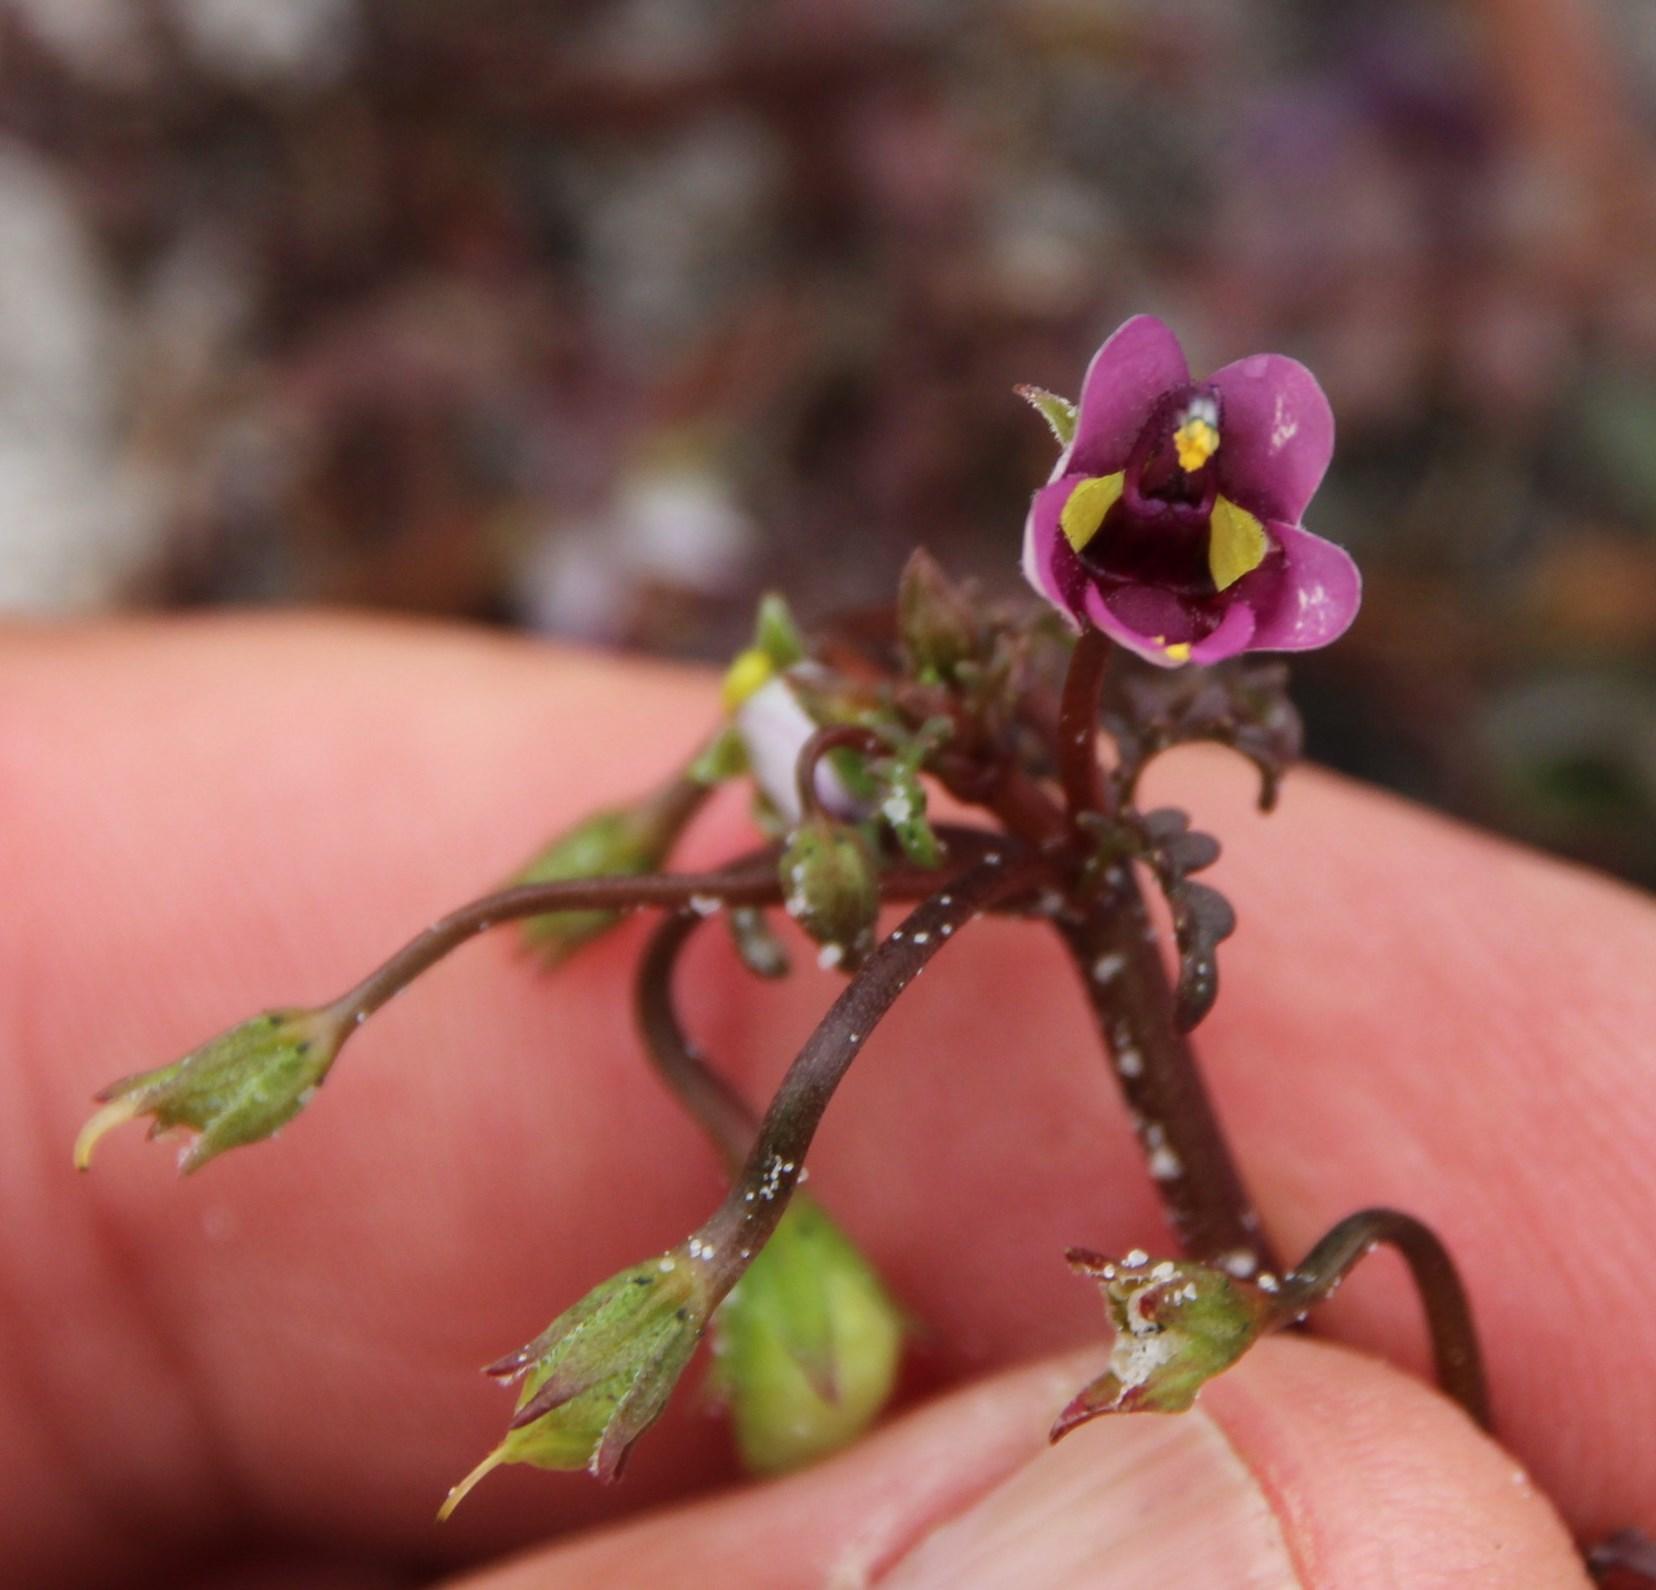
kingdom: Plantae
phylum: Tracheophyta
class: Magnoliopsida
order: Lamiales
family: Scrophulariaceae
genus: Diascia
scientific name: Diascia capensis
